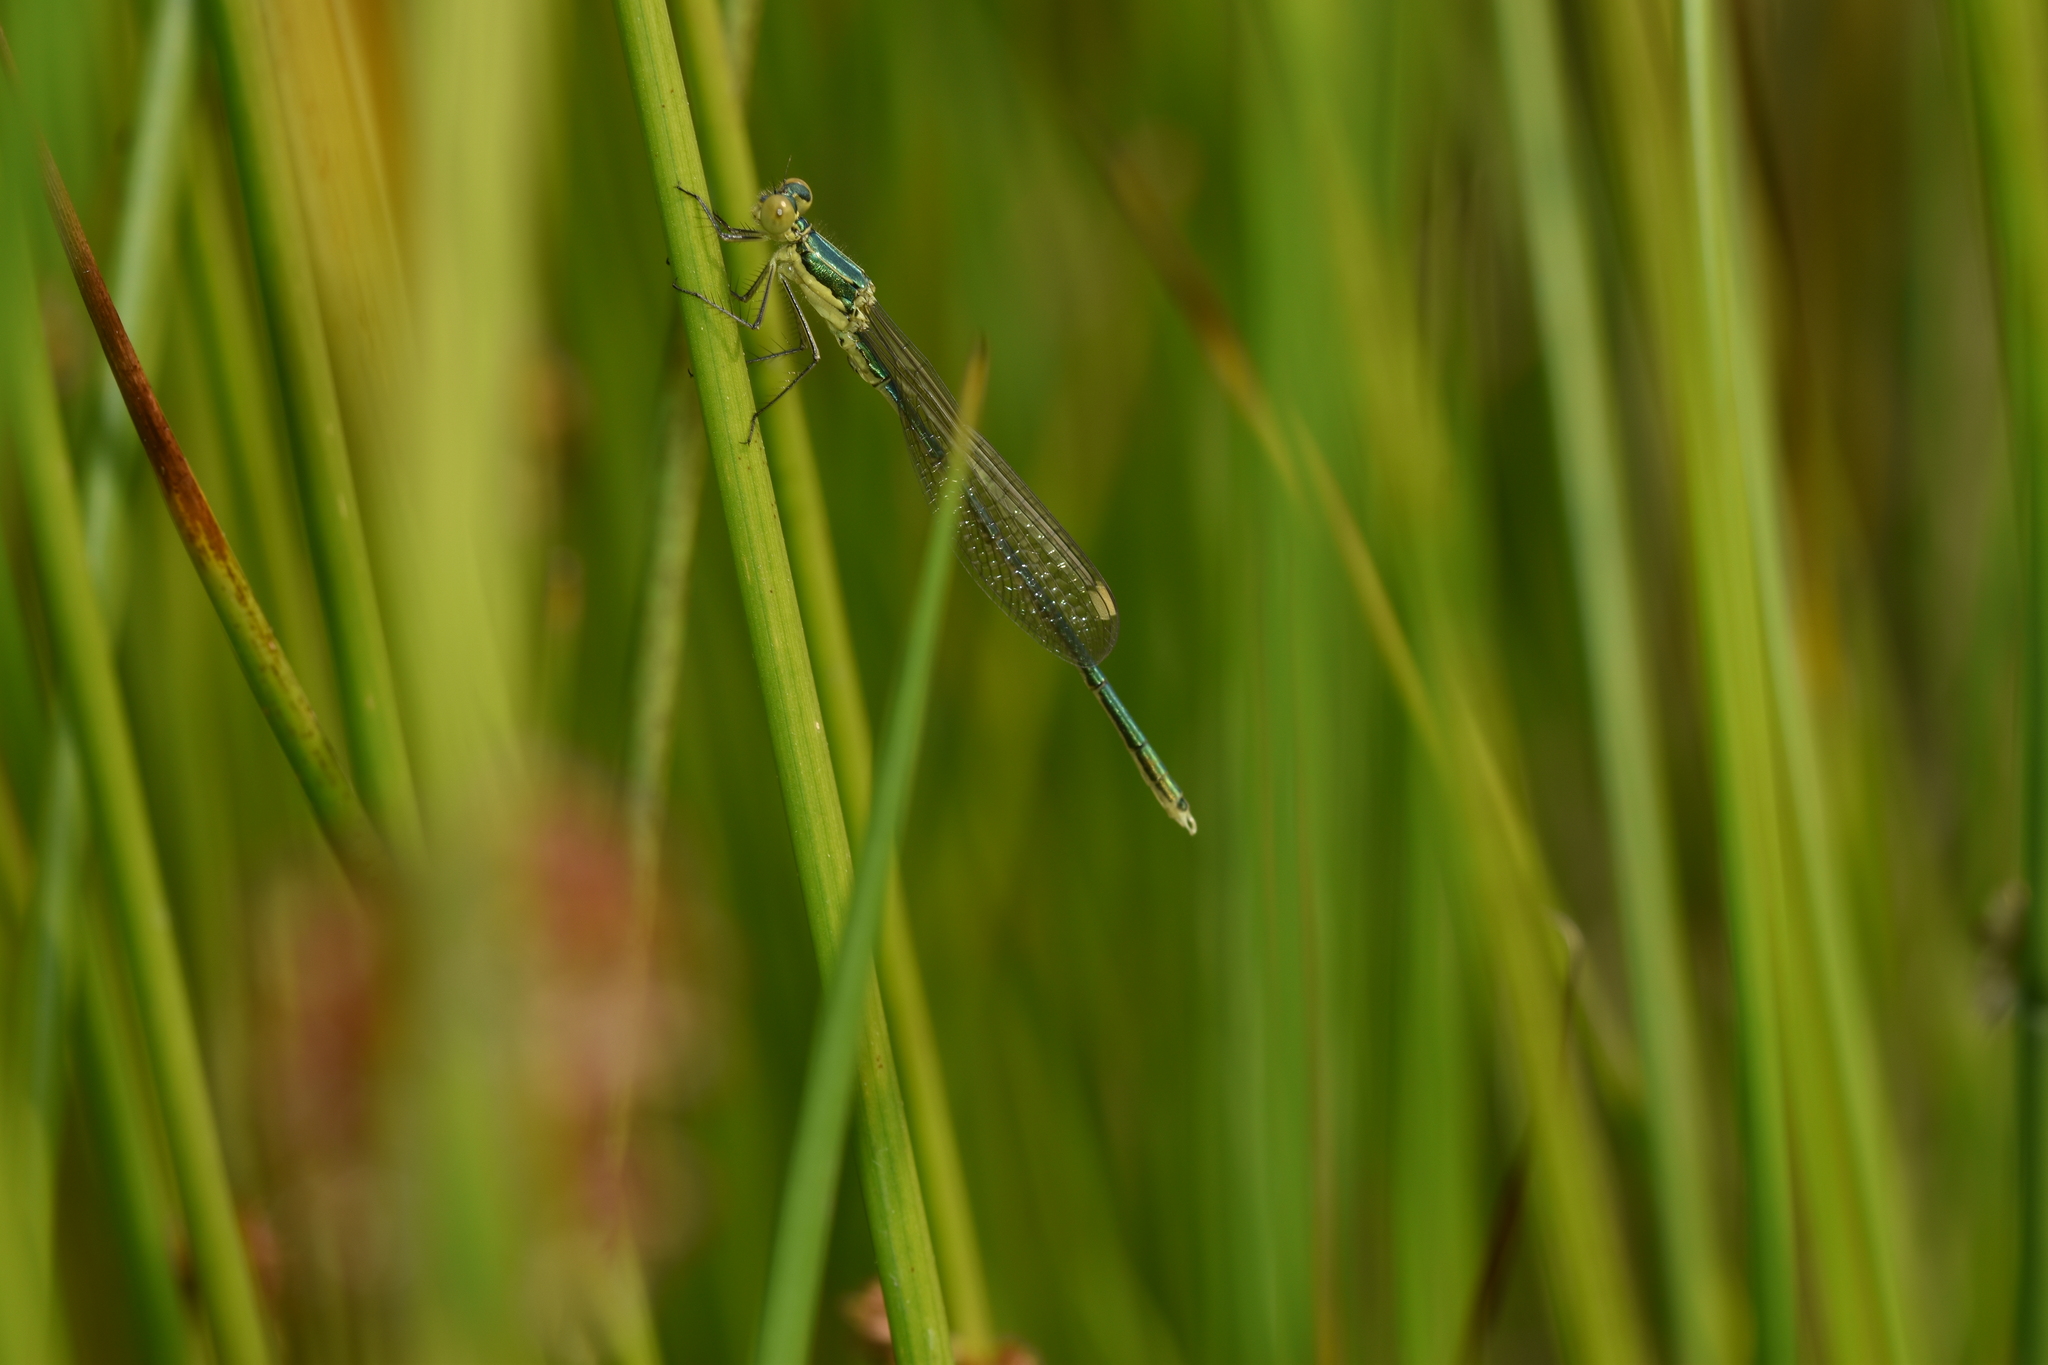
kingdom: Animalia
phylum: Arthropoda
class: Insecta
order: Odonata
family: Lestidae
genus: Lestes
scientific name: Lestes virens
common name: Small emerald spreadwing
